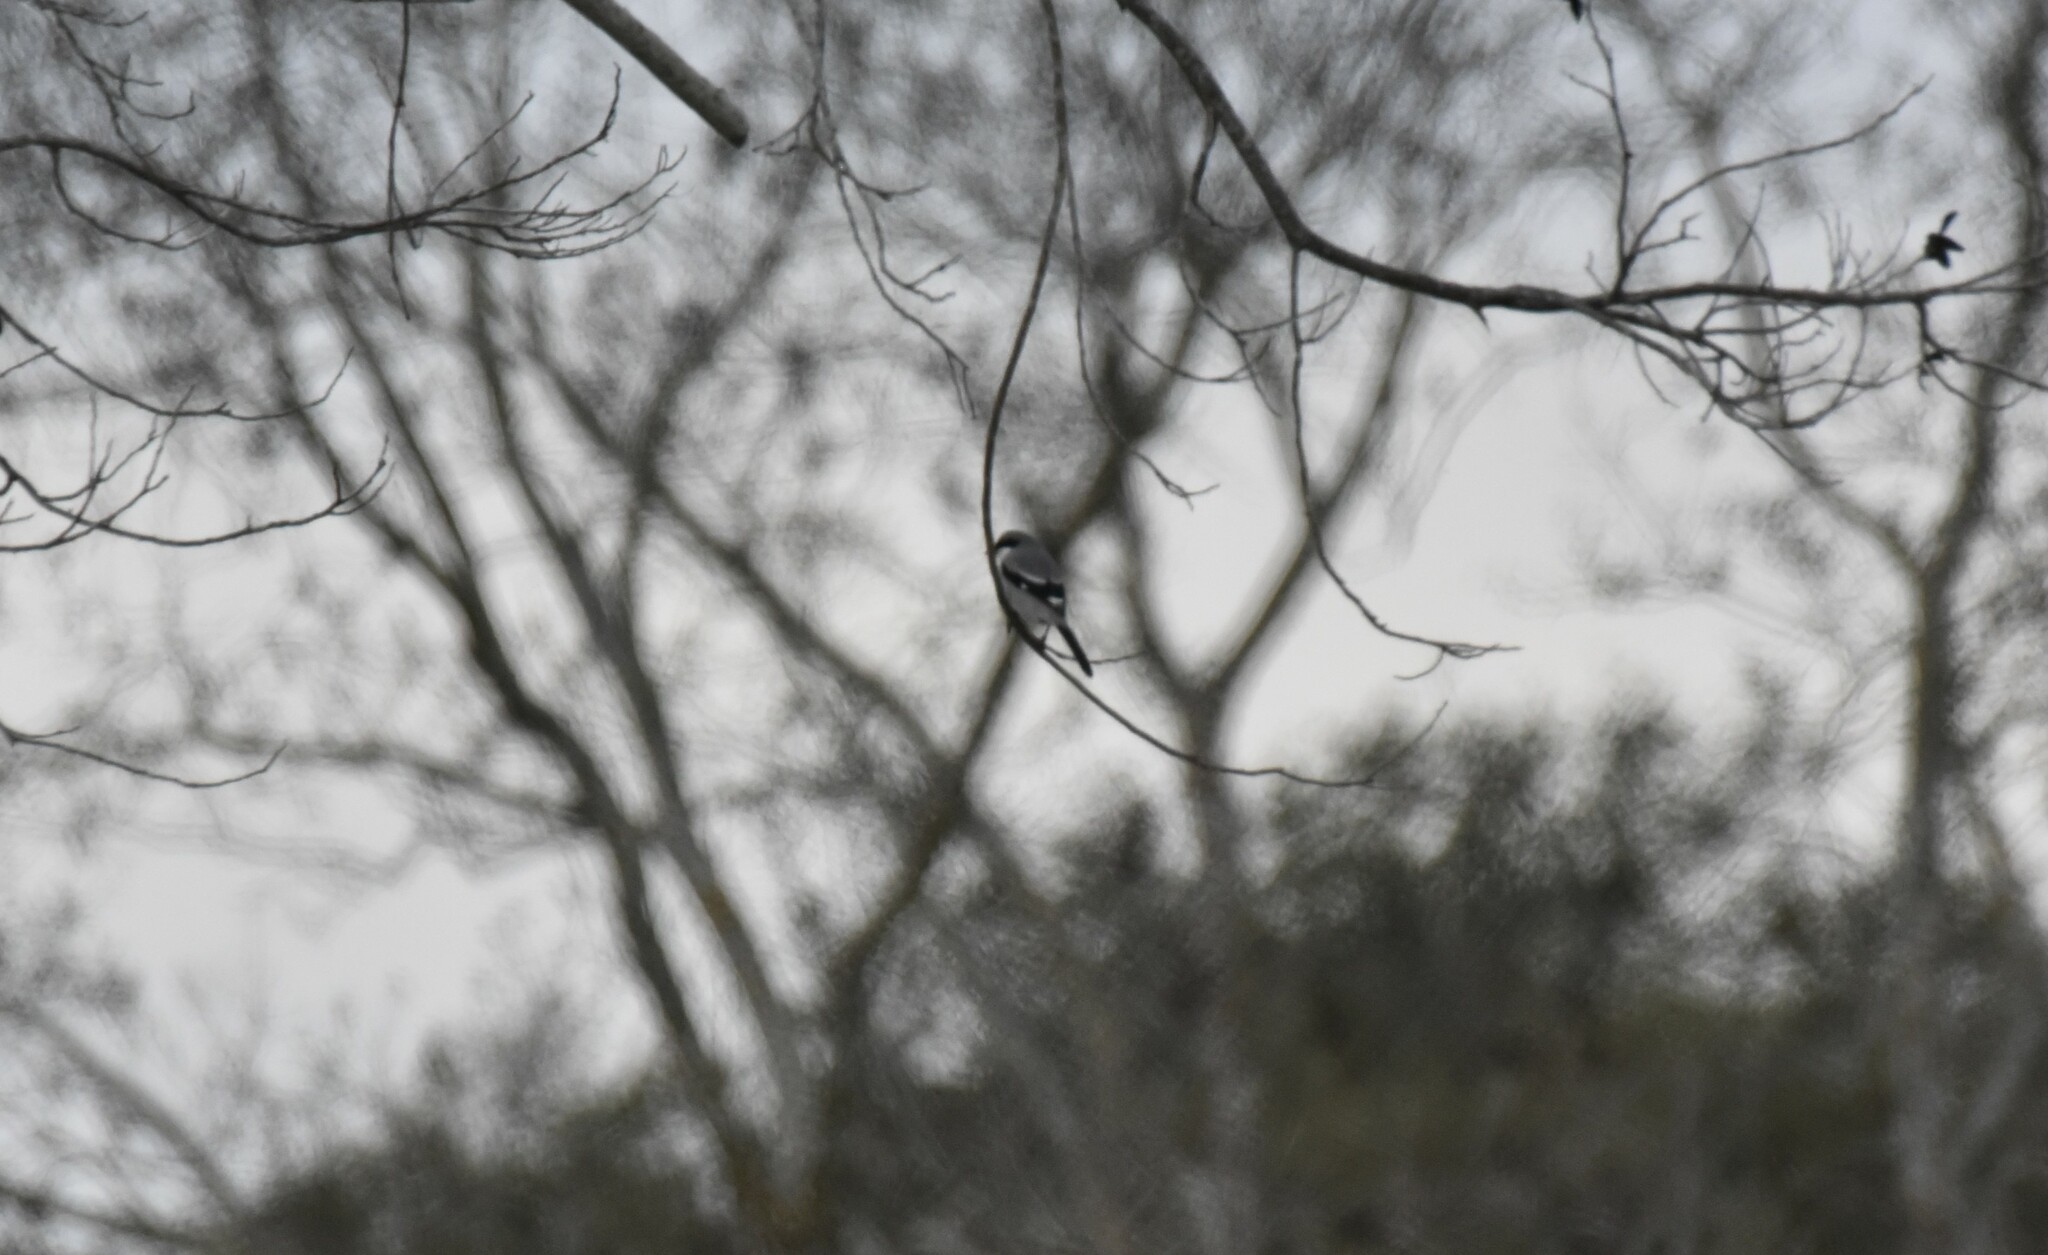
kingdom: Animalia
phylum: Chordata
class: Aves
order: Passeriformes
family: Laniidae
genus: Lanius
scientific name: Lanius ludovicianus
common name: Loggerhead shrike
